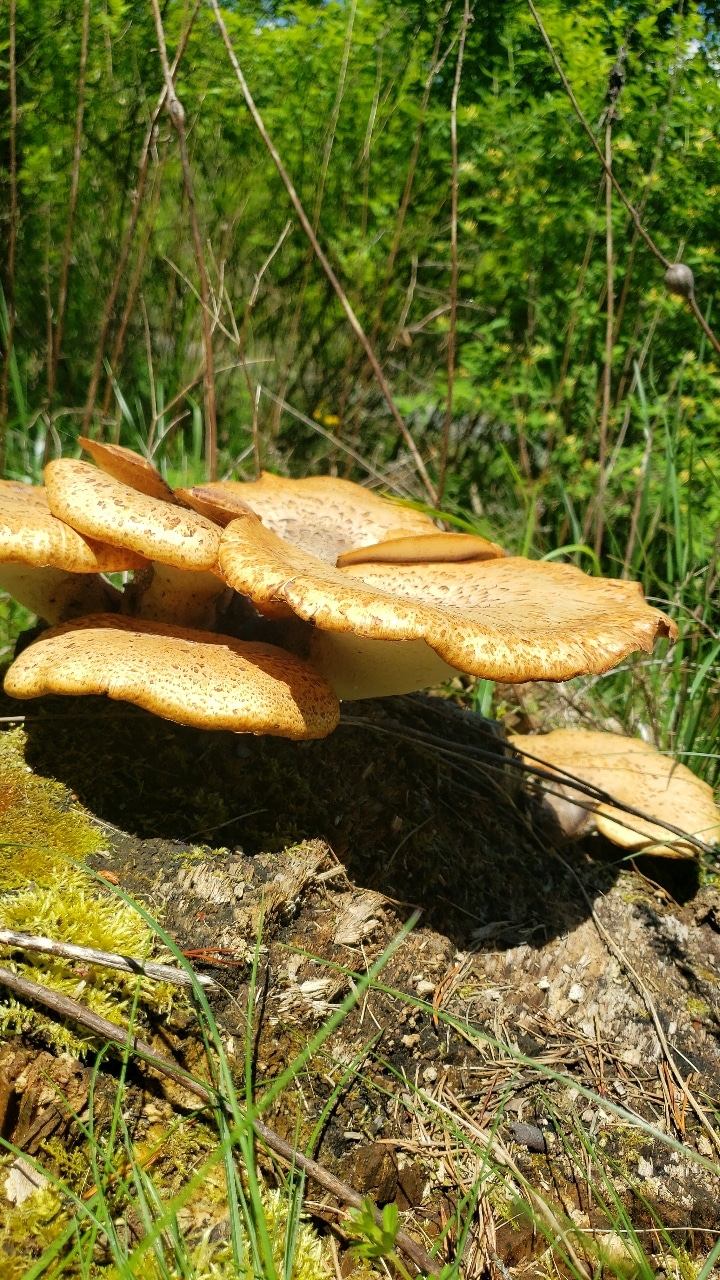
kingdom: Fungi
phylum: Basidiomycota
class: Agaricomycetes
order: Polyporales
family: Polyporaceae
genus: Cerioporus
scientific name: Cerioporus squamosus
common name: Dryad's saddle
